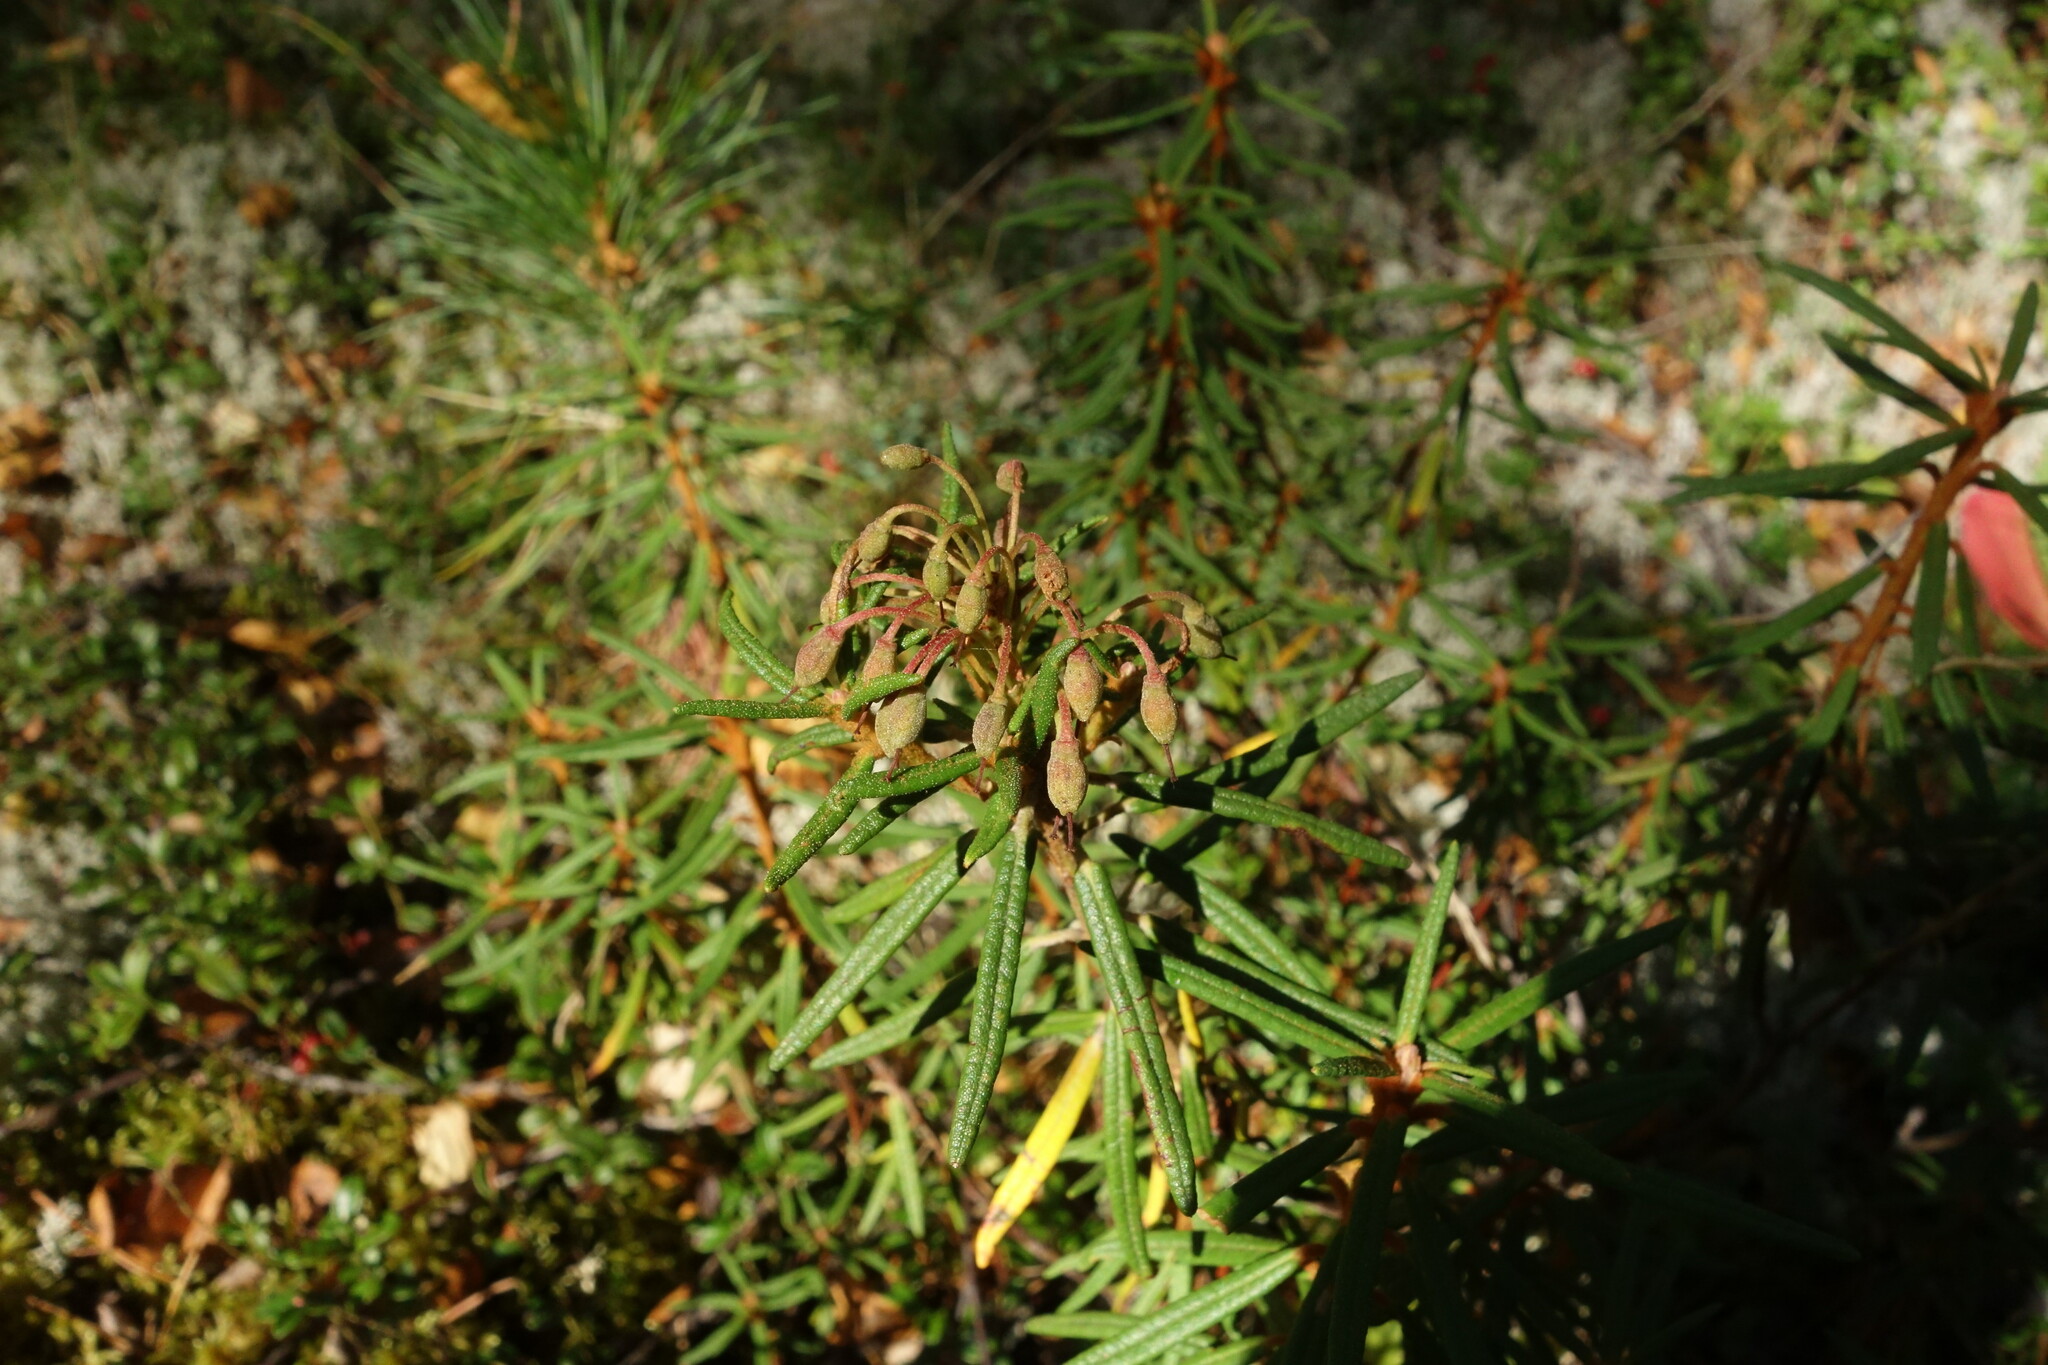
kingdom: Plantae
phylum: Tracheophyta
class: Magnoliopsida
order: Ericales
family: Ericaceae
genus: Rhododendron
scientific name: Rhododendron tomentosum
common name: Marsh labrador tea
